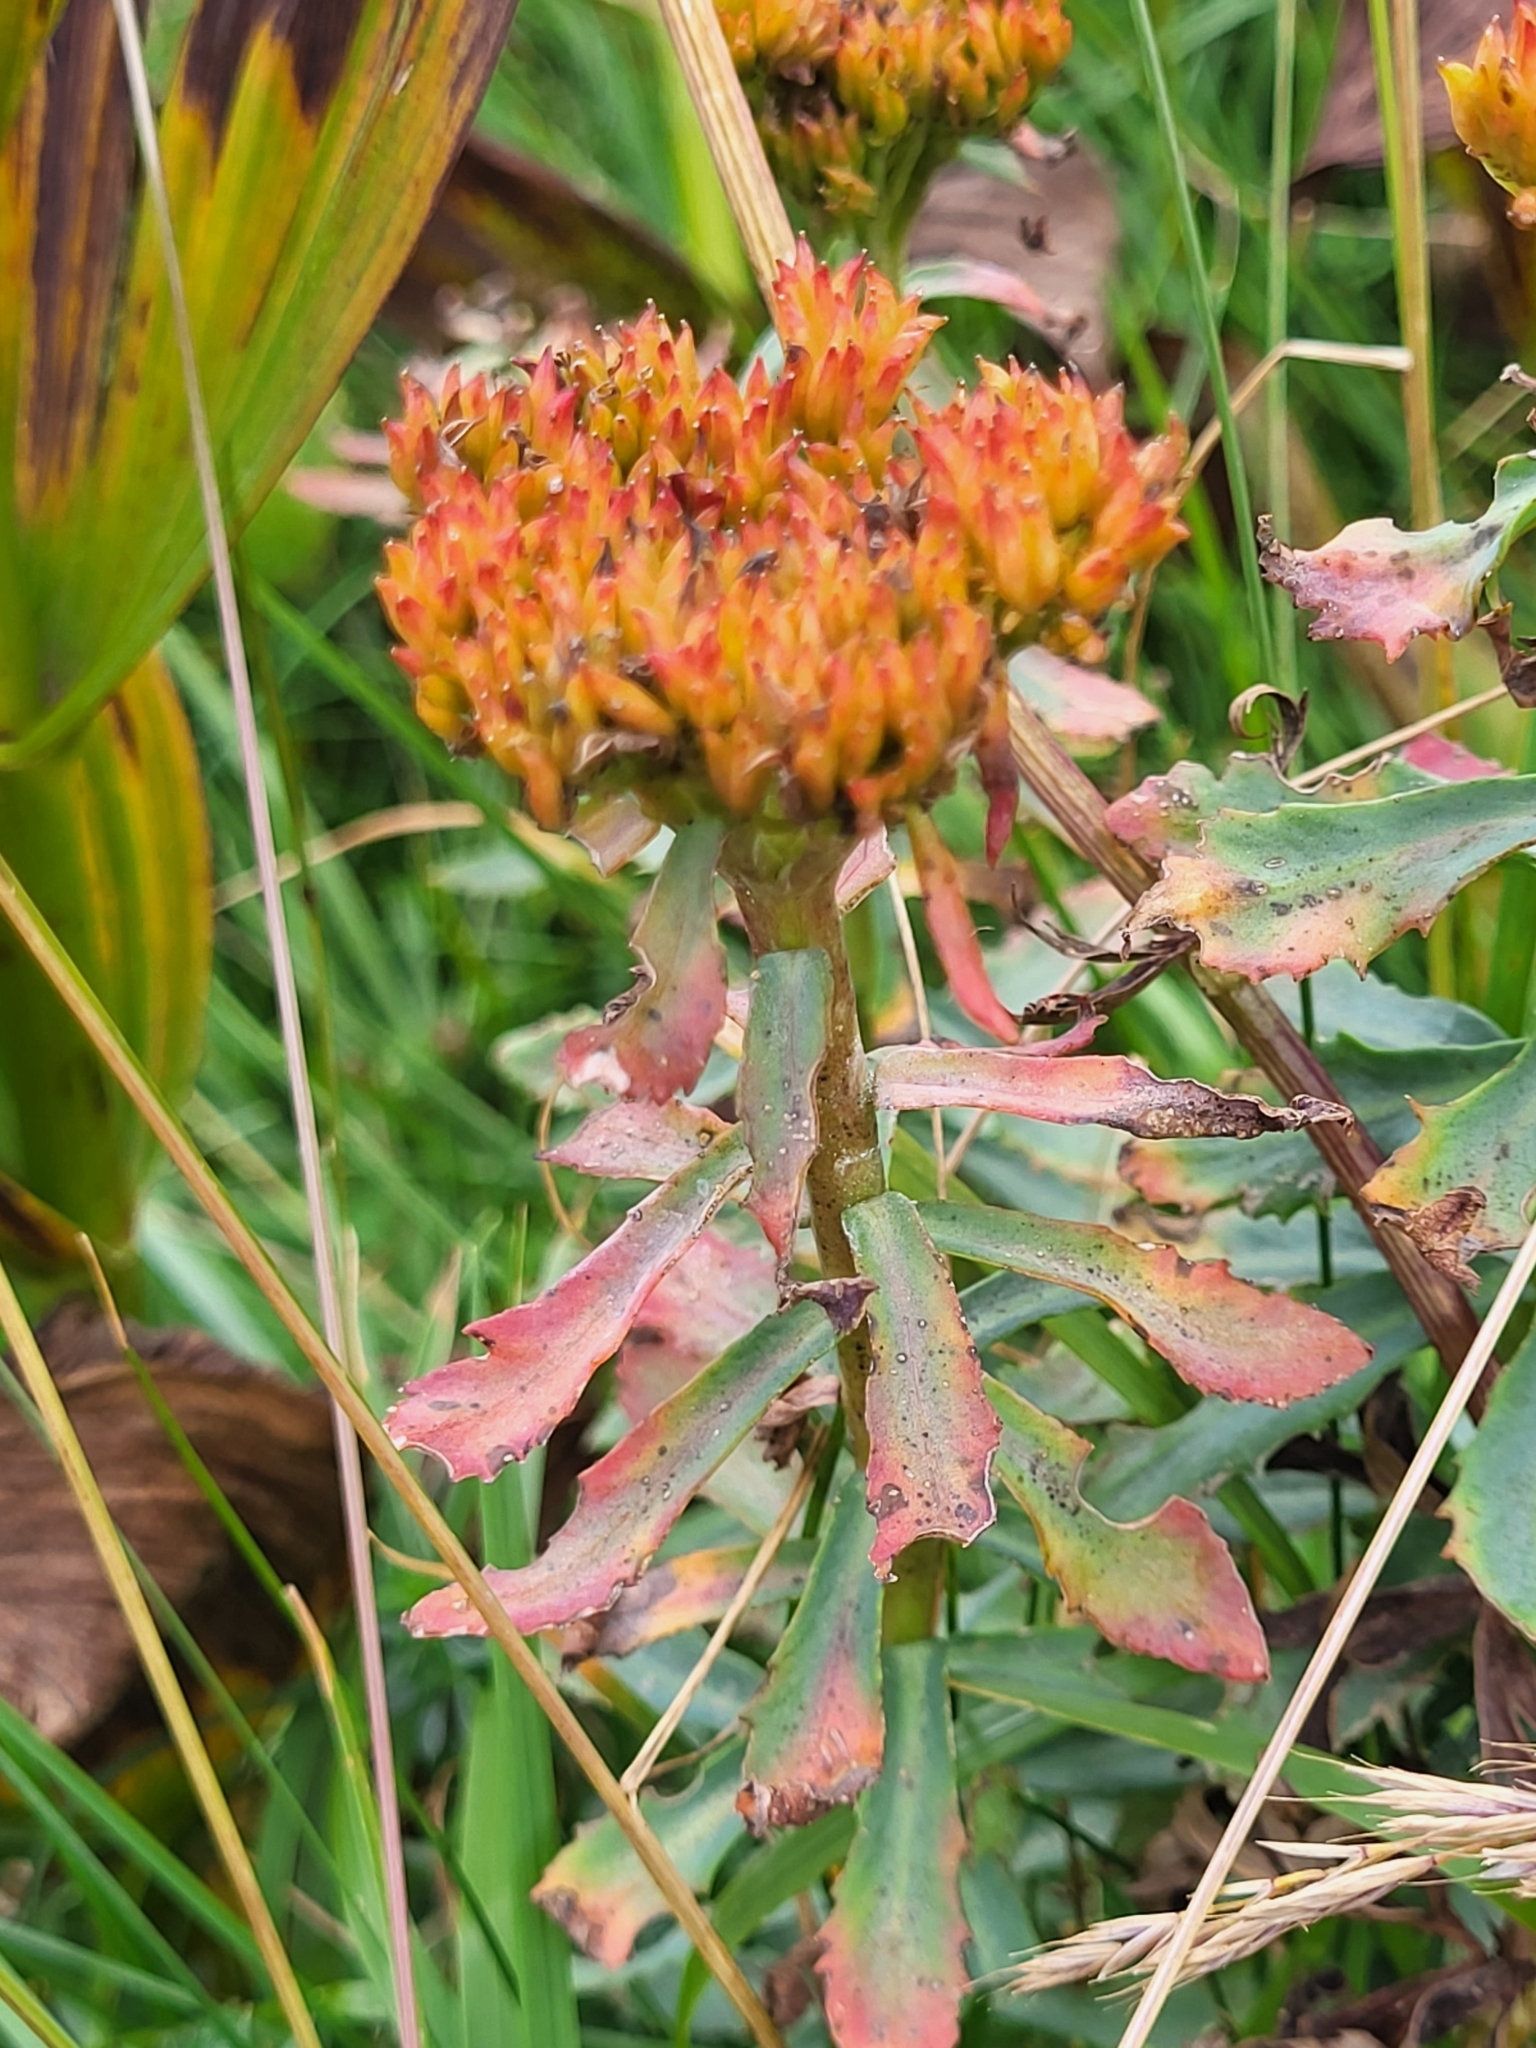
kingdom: Plantae
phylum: Tracheophyta
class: Magnoliopsida
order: Saxifragales
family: Crassulaceae
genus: Rhodiola
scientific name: Rhodiola rosea
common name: Roseroot
